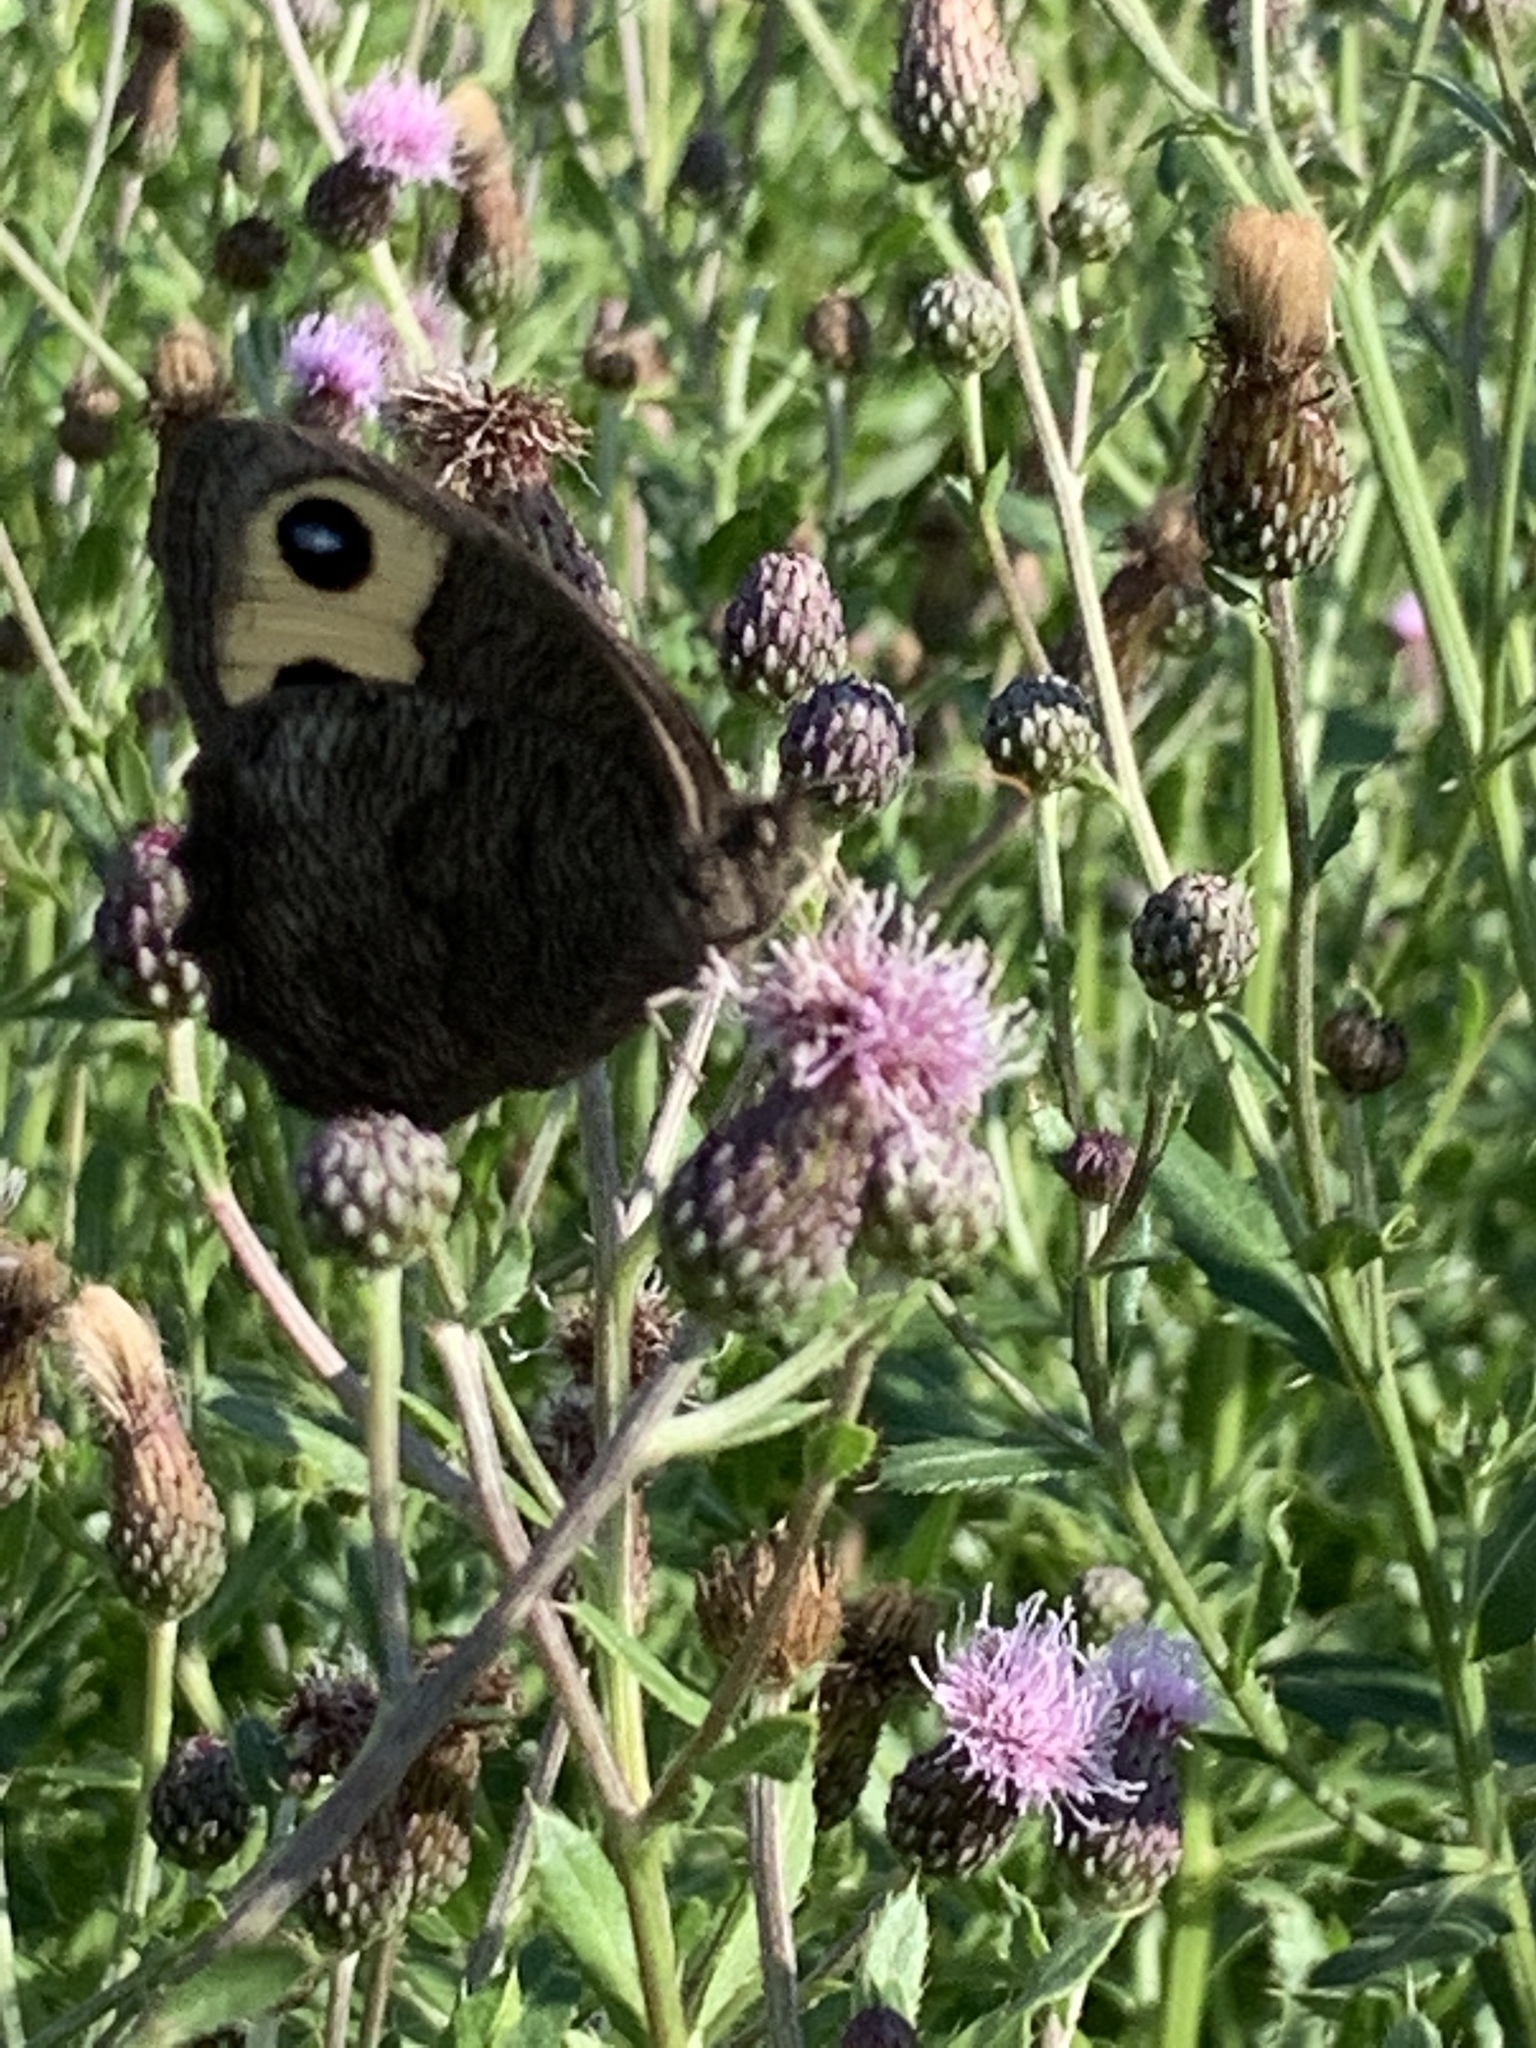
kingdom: Animalia
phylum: Arthropoda
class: Insecta
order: Lepidoptera
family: Nymphalidae
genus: Cercyonis
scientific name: Cercyonis pegala
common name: Common wood-nymph
